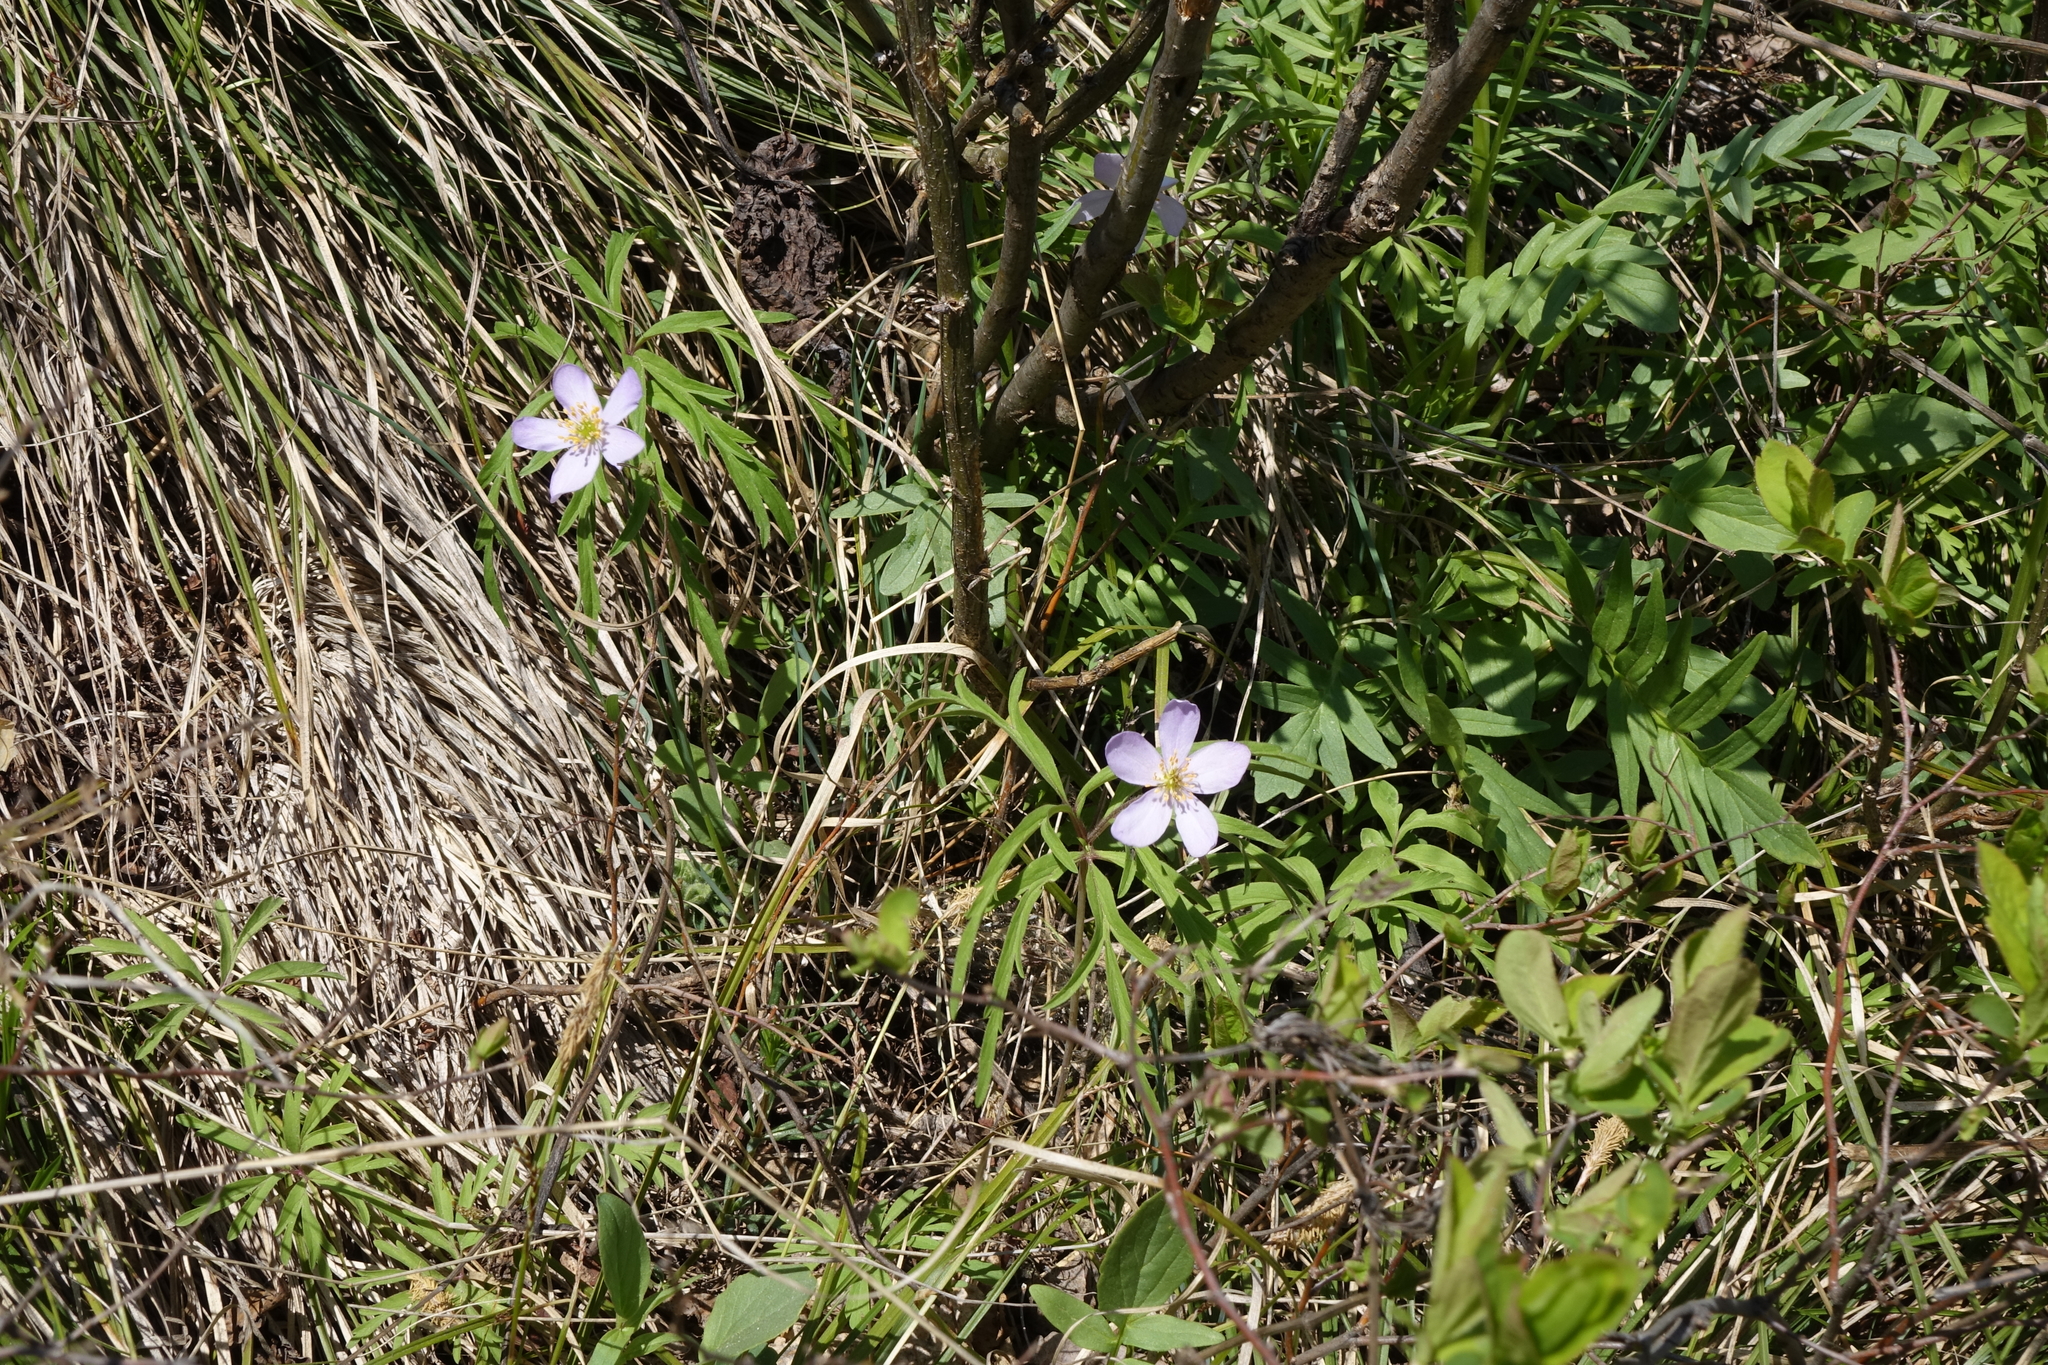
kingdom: Plantae
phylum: Tracheophyta
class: Magnoliopsida
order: Ranunculales
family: Ranunculaceae
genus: Anemone
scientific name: Anemone caerulea
